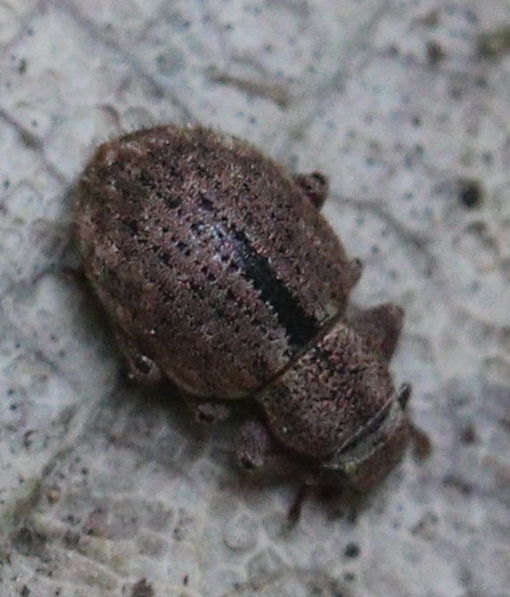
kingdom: Animalia
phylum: Arthropoda
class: Insecta
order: Coleoptera
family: Curculionidae
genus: Strophosoma
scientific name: Strophosoma melanogrammum
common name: Weevil
